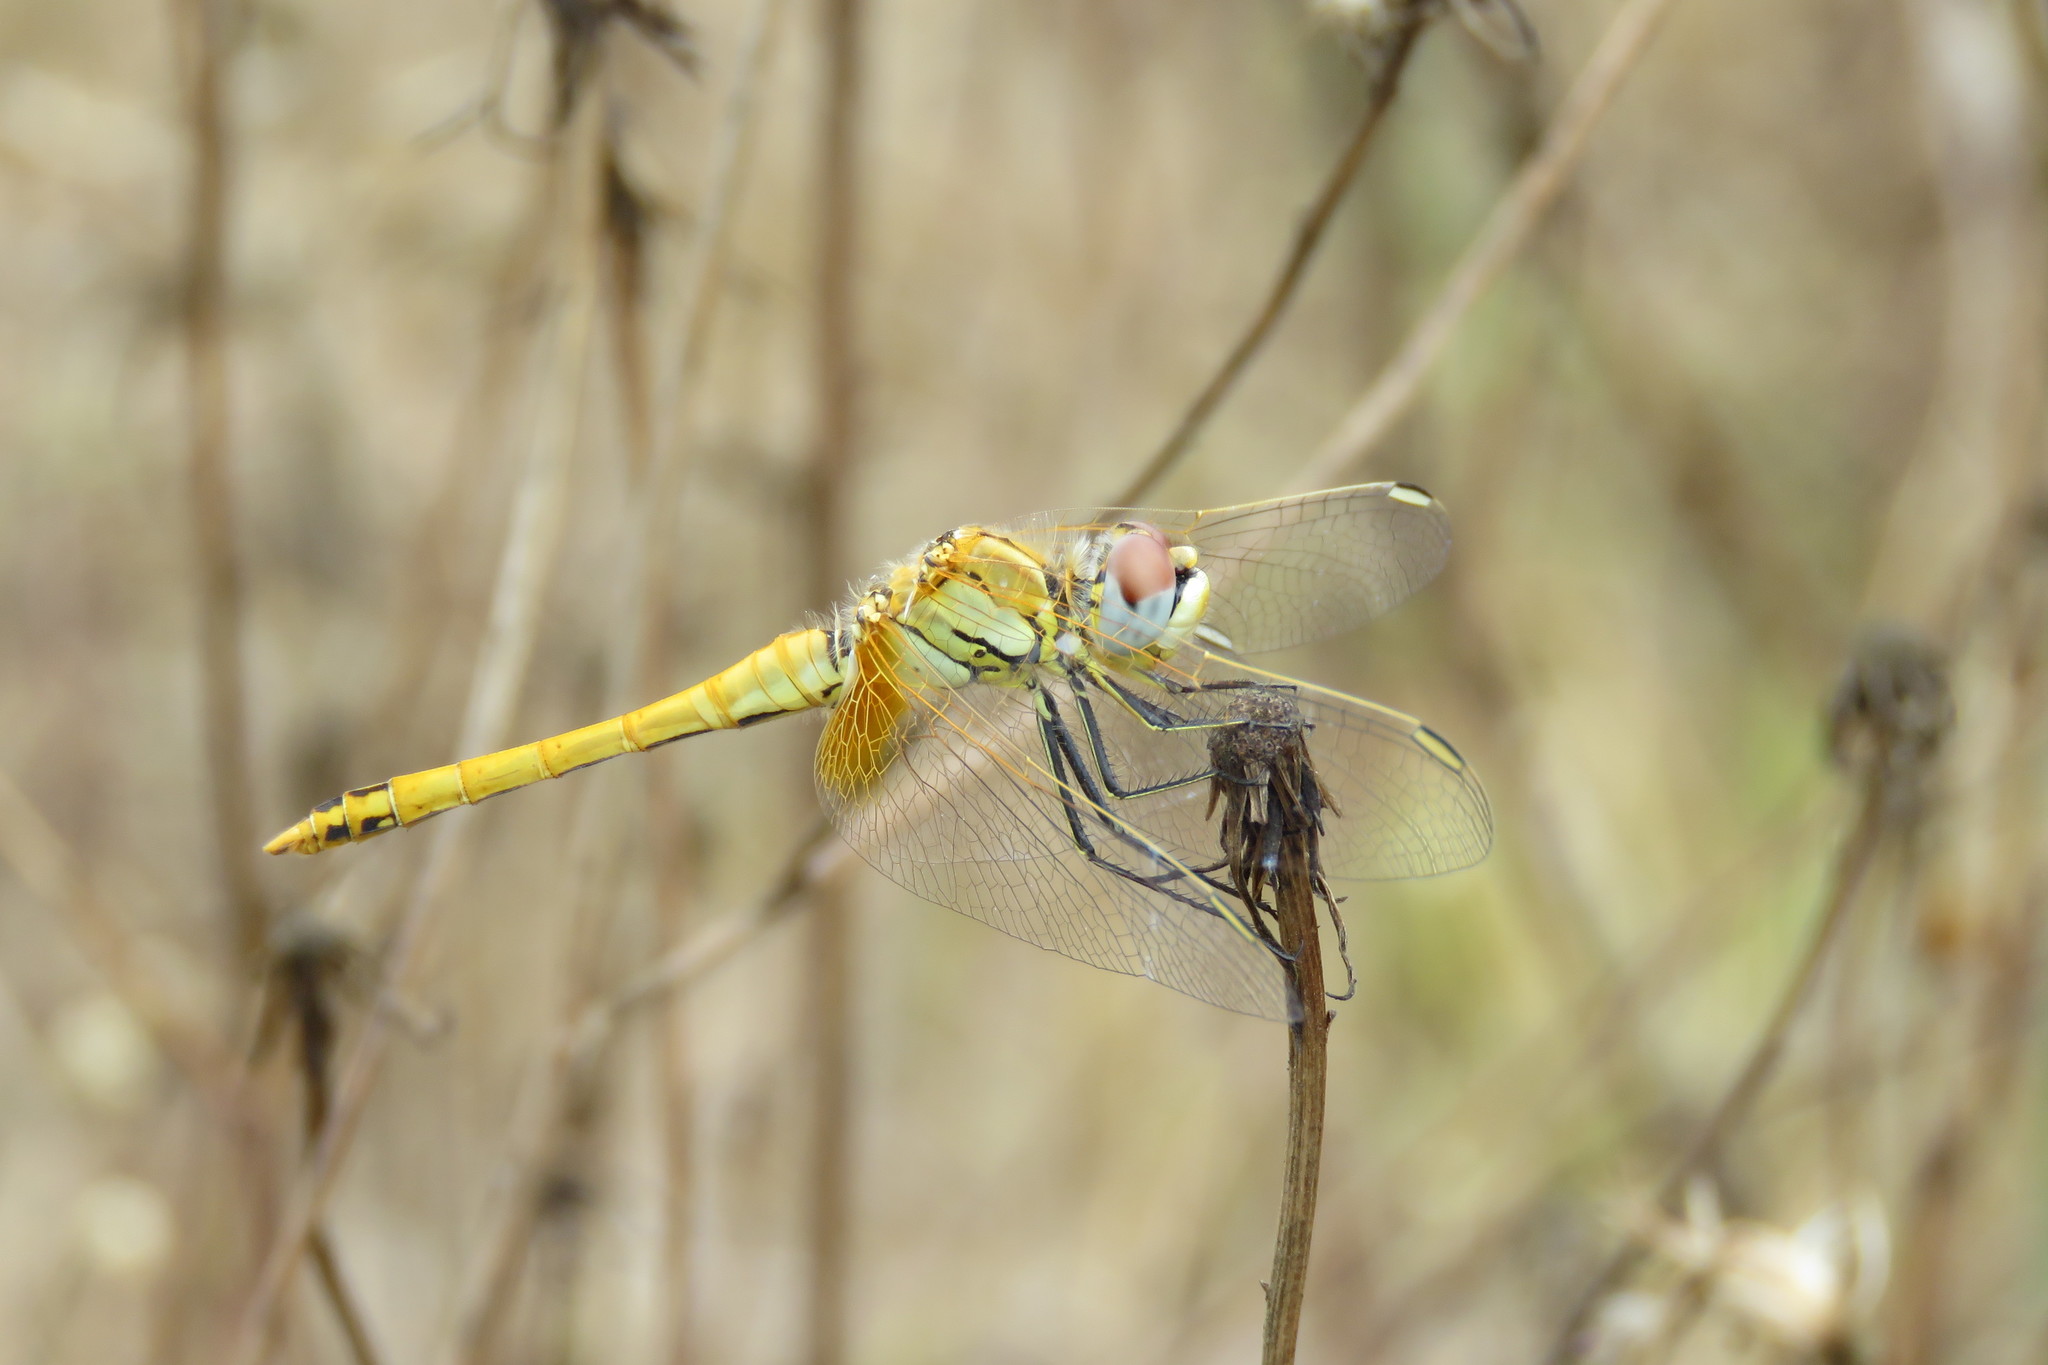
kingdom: Animalia
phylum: Arthropoda
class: Insecta
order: Odonata
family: Libellulidae
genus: Sympetrum
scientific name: Sympetrum fonscolombii
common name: Red-veined darter
